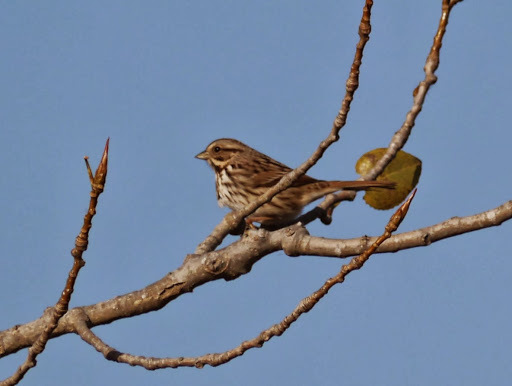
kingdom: Animalia
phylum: Chordata
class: Aves
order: Passeriformes
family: Passerellidae
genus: Melospiza
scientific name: Melospiza melodia
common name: Song sparrow
